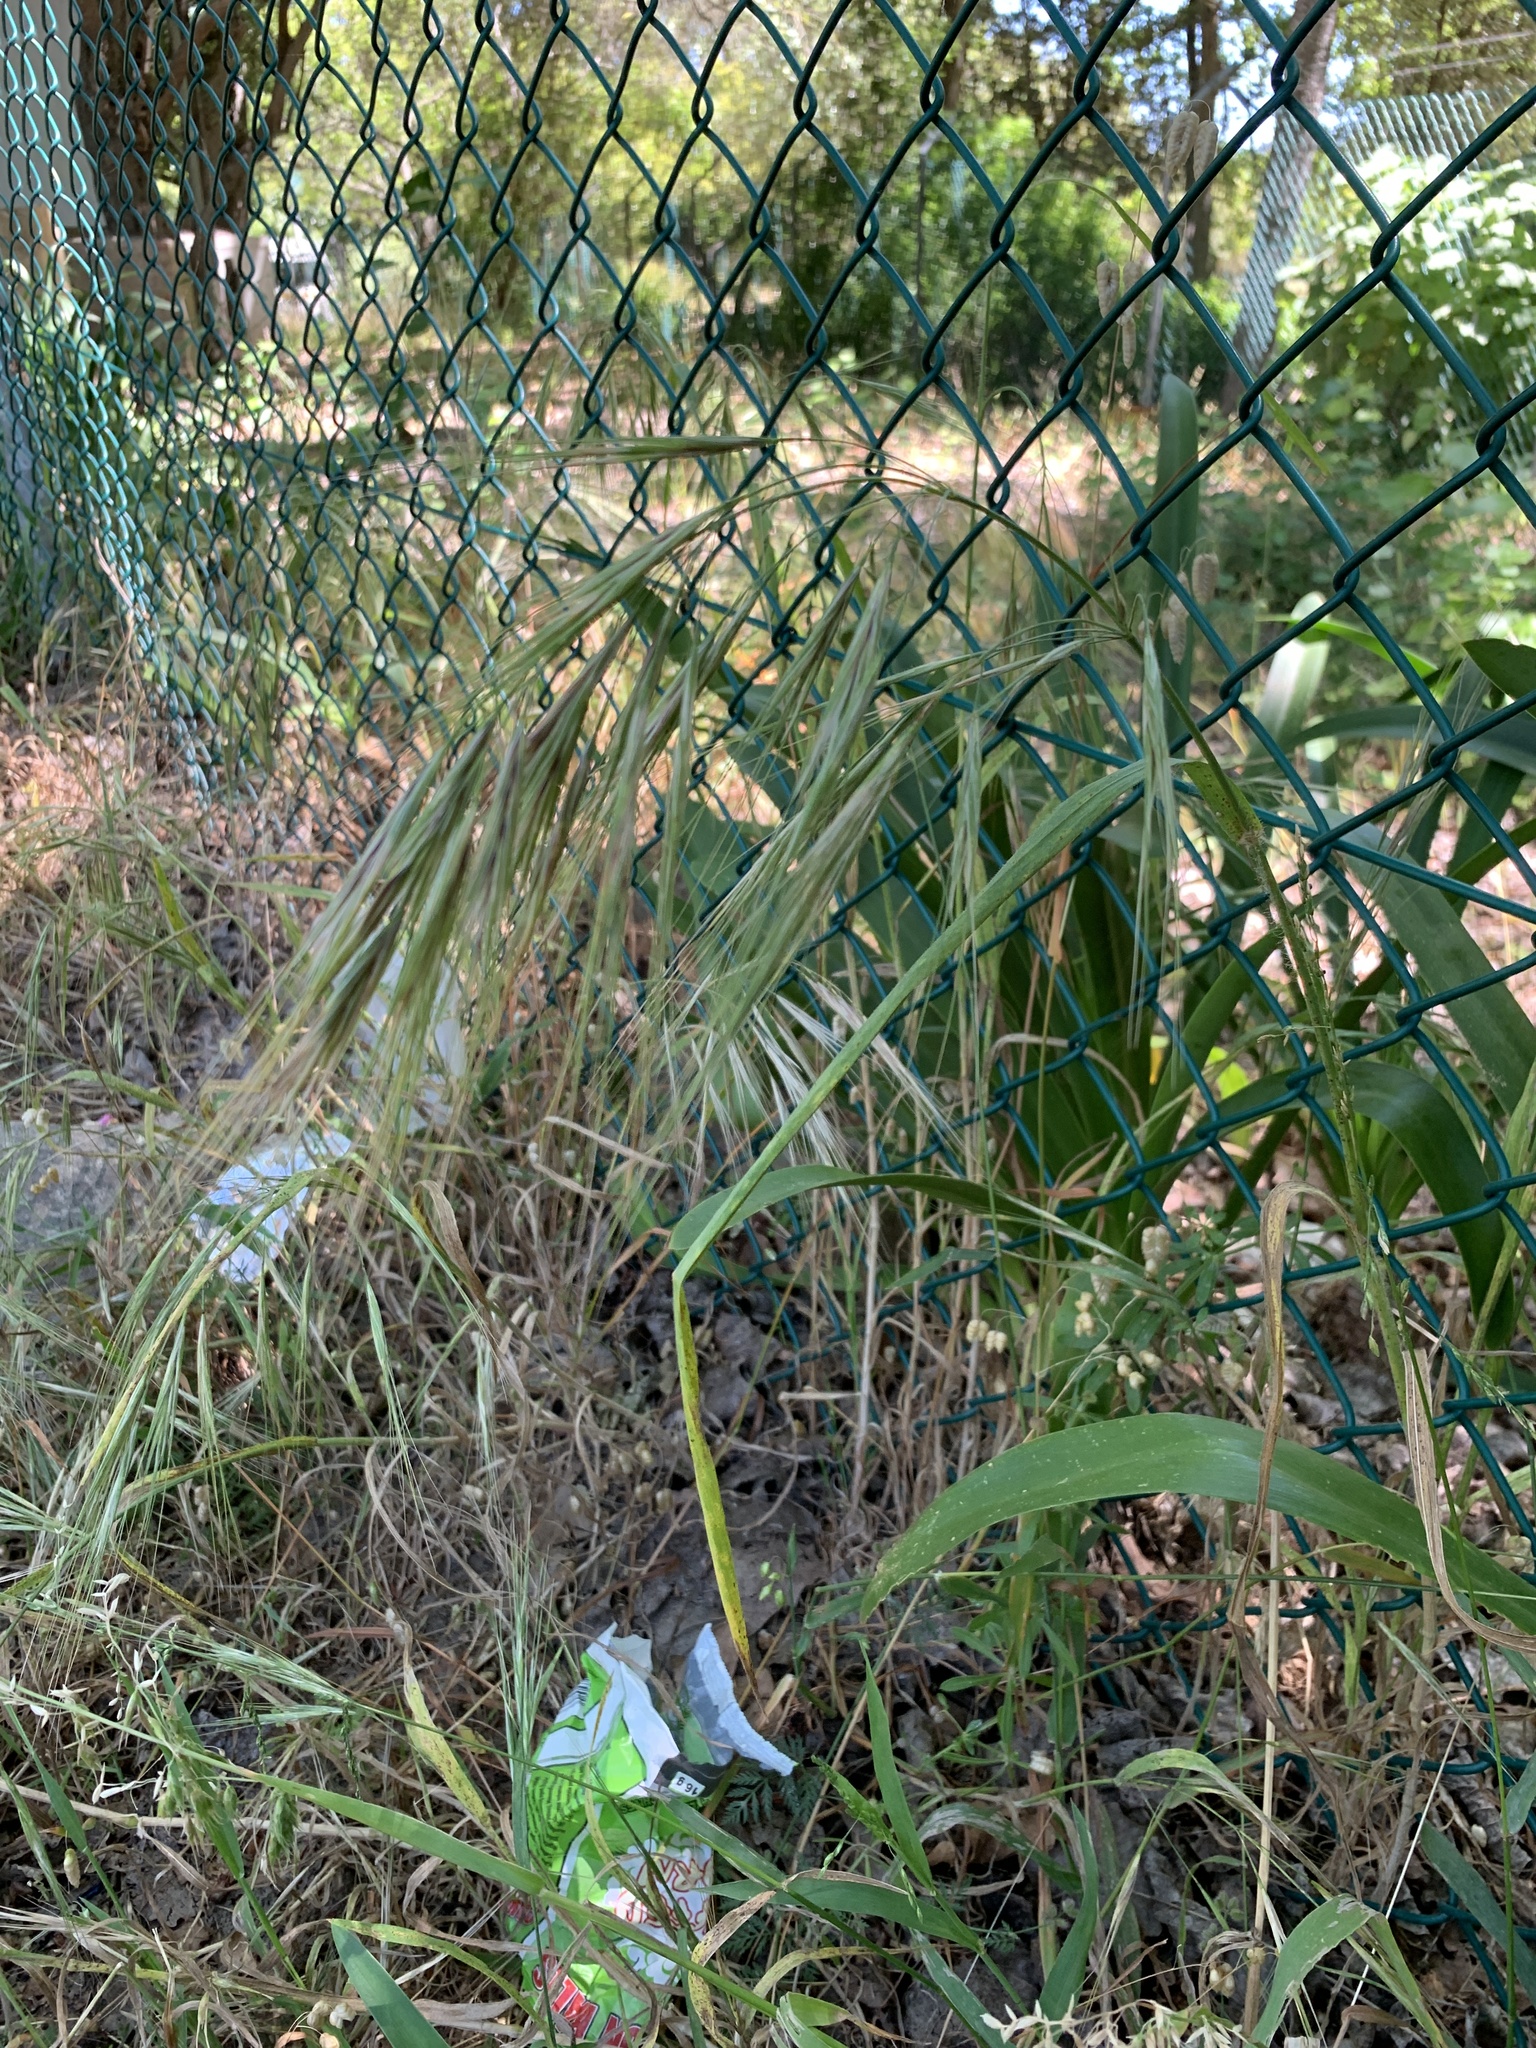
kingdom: Plantae
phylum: Tracheophyta
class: Liliopsida
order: Poales
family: Poaceae
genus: Bromus
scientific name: Bromus diandrus
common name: Ripgut brome
